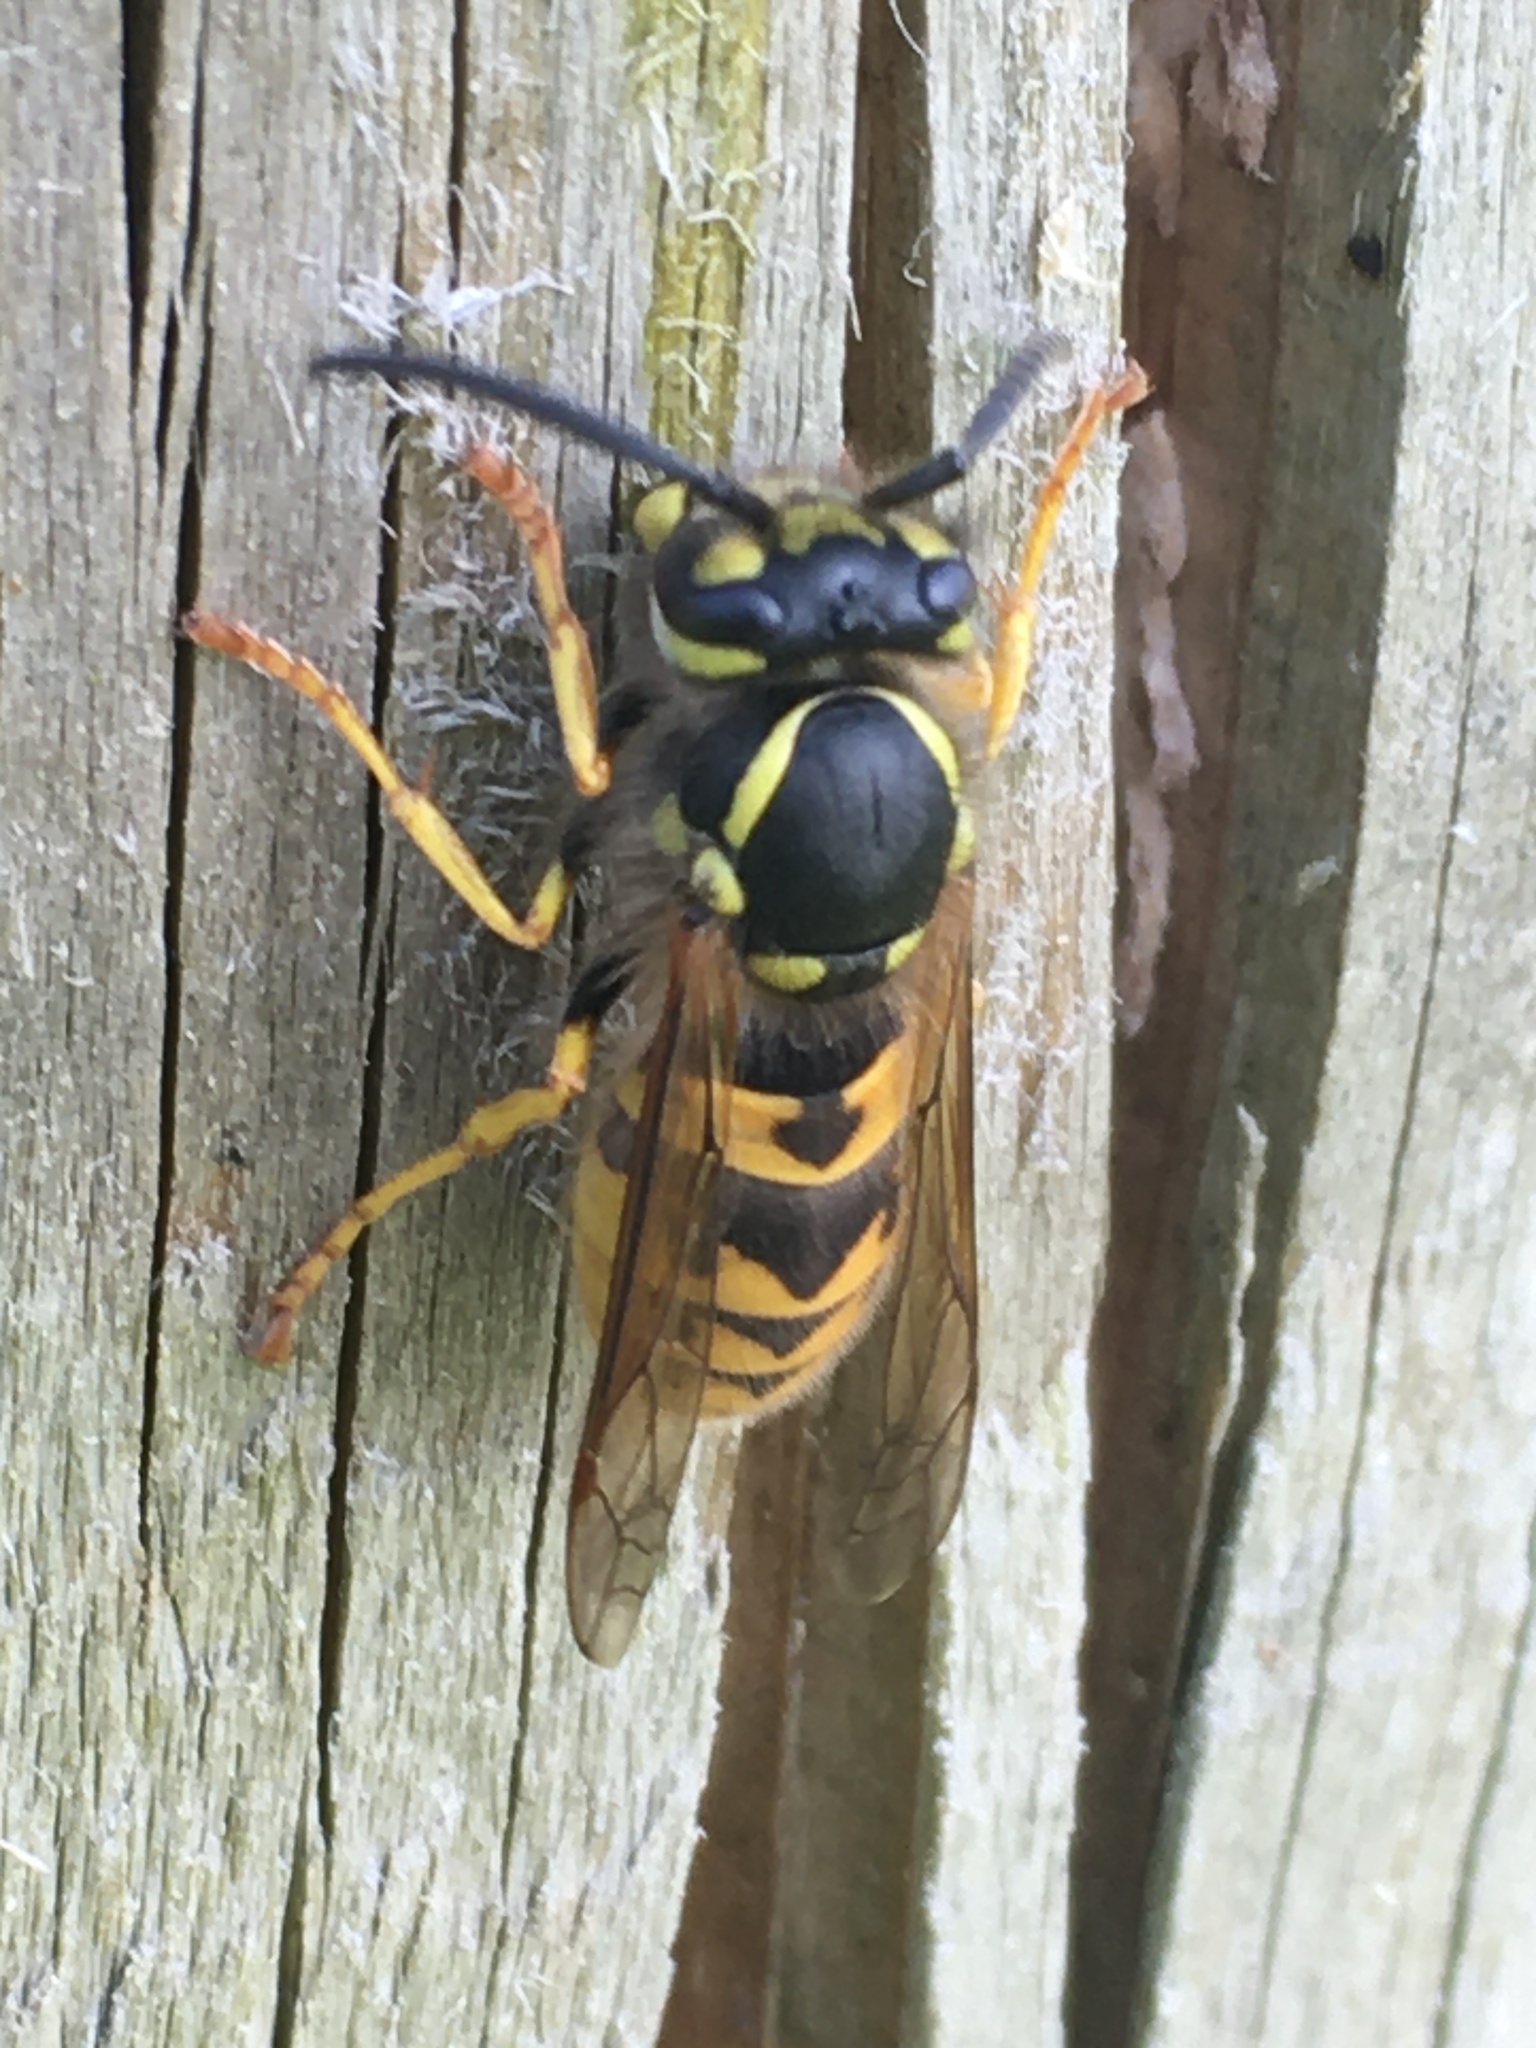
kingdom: Animalia
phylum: Arthropoda
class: Insecta
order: Hymenoptera
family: Vespidae
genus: Vespula
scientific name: Vespula germanica
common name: German wasp
